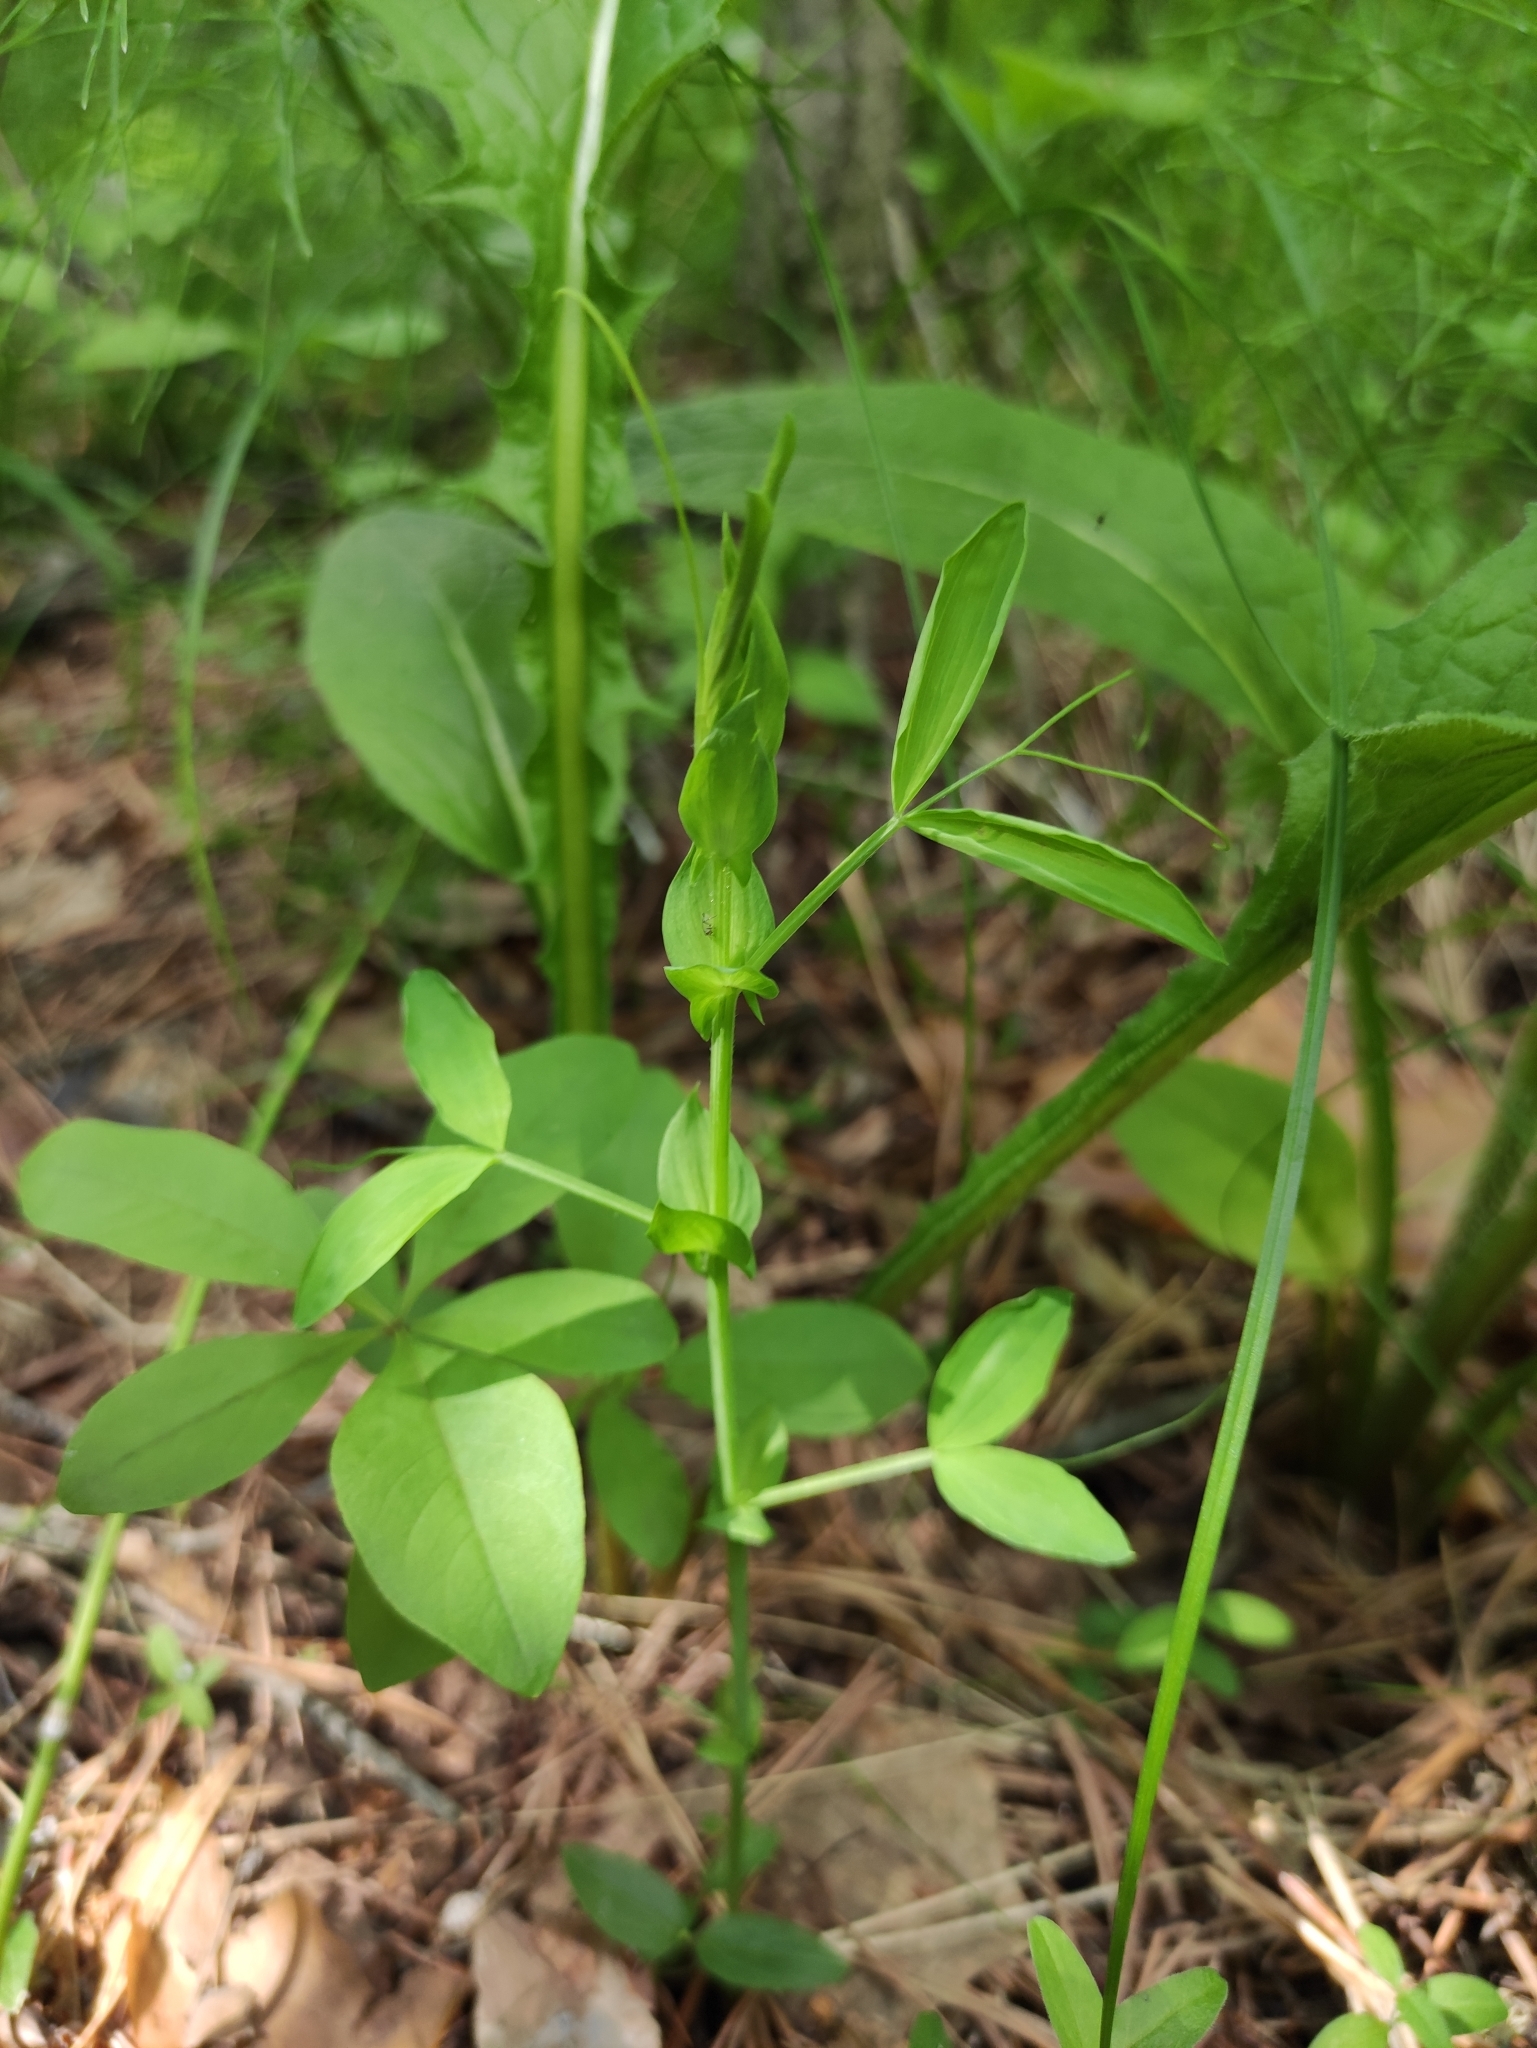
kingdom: Plantae
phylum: Tracheophyta
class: Magnoliopsida
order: Fabales
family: Fabaceae
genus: Lathyrus
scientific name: Lathyrus pratensis
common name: Meadow vetchling
